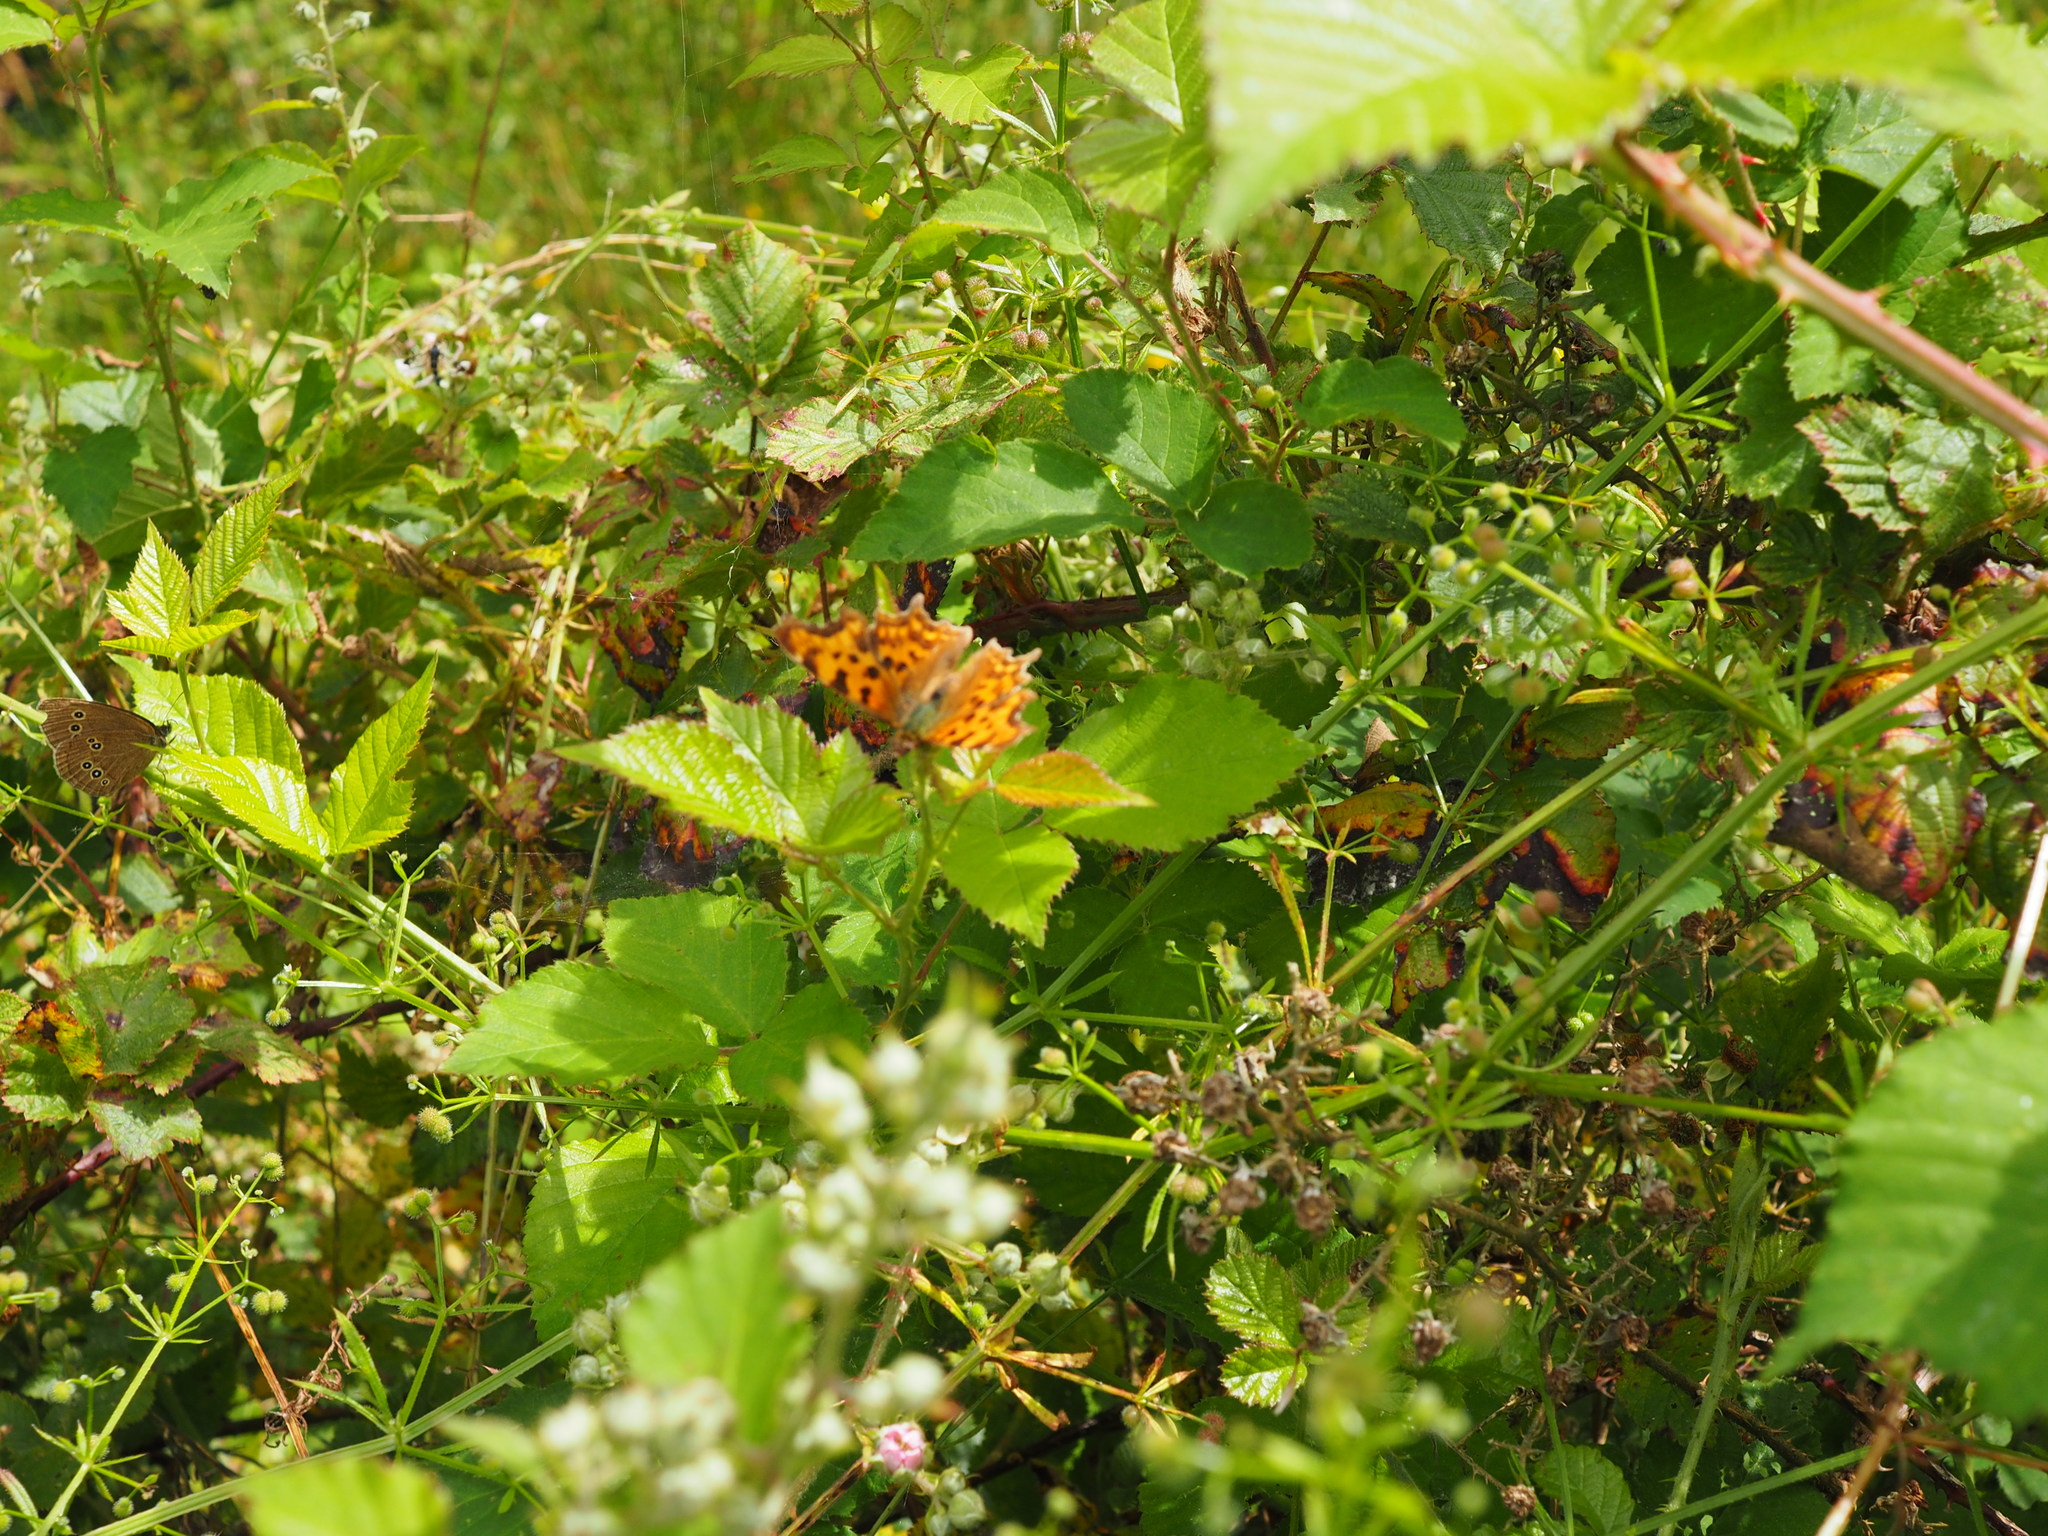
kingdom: Animalia
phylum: Arthropoda
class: Insecta
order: Lepidoptera
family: Nymphalidae
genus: Polygonia
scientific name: Polygonia c-album
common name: Comma
